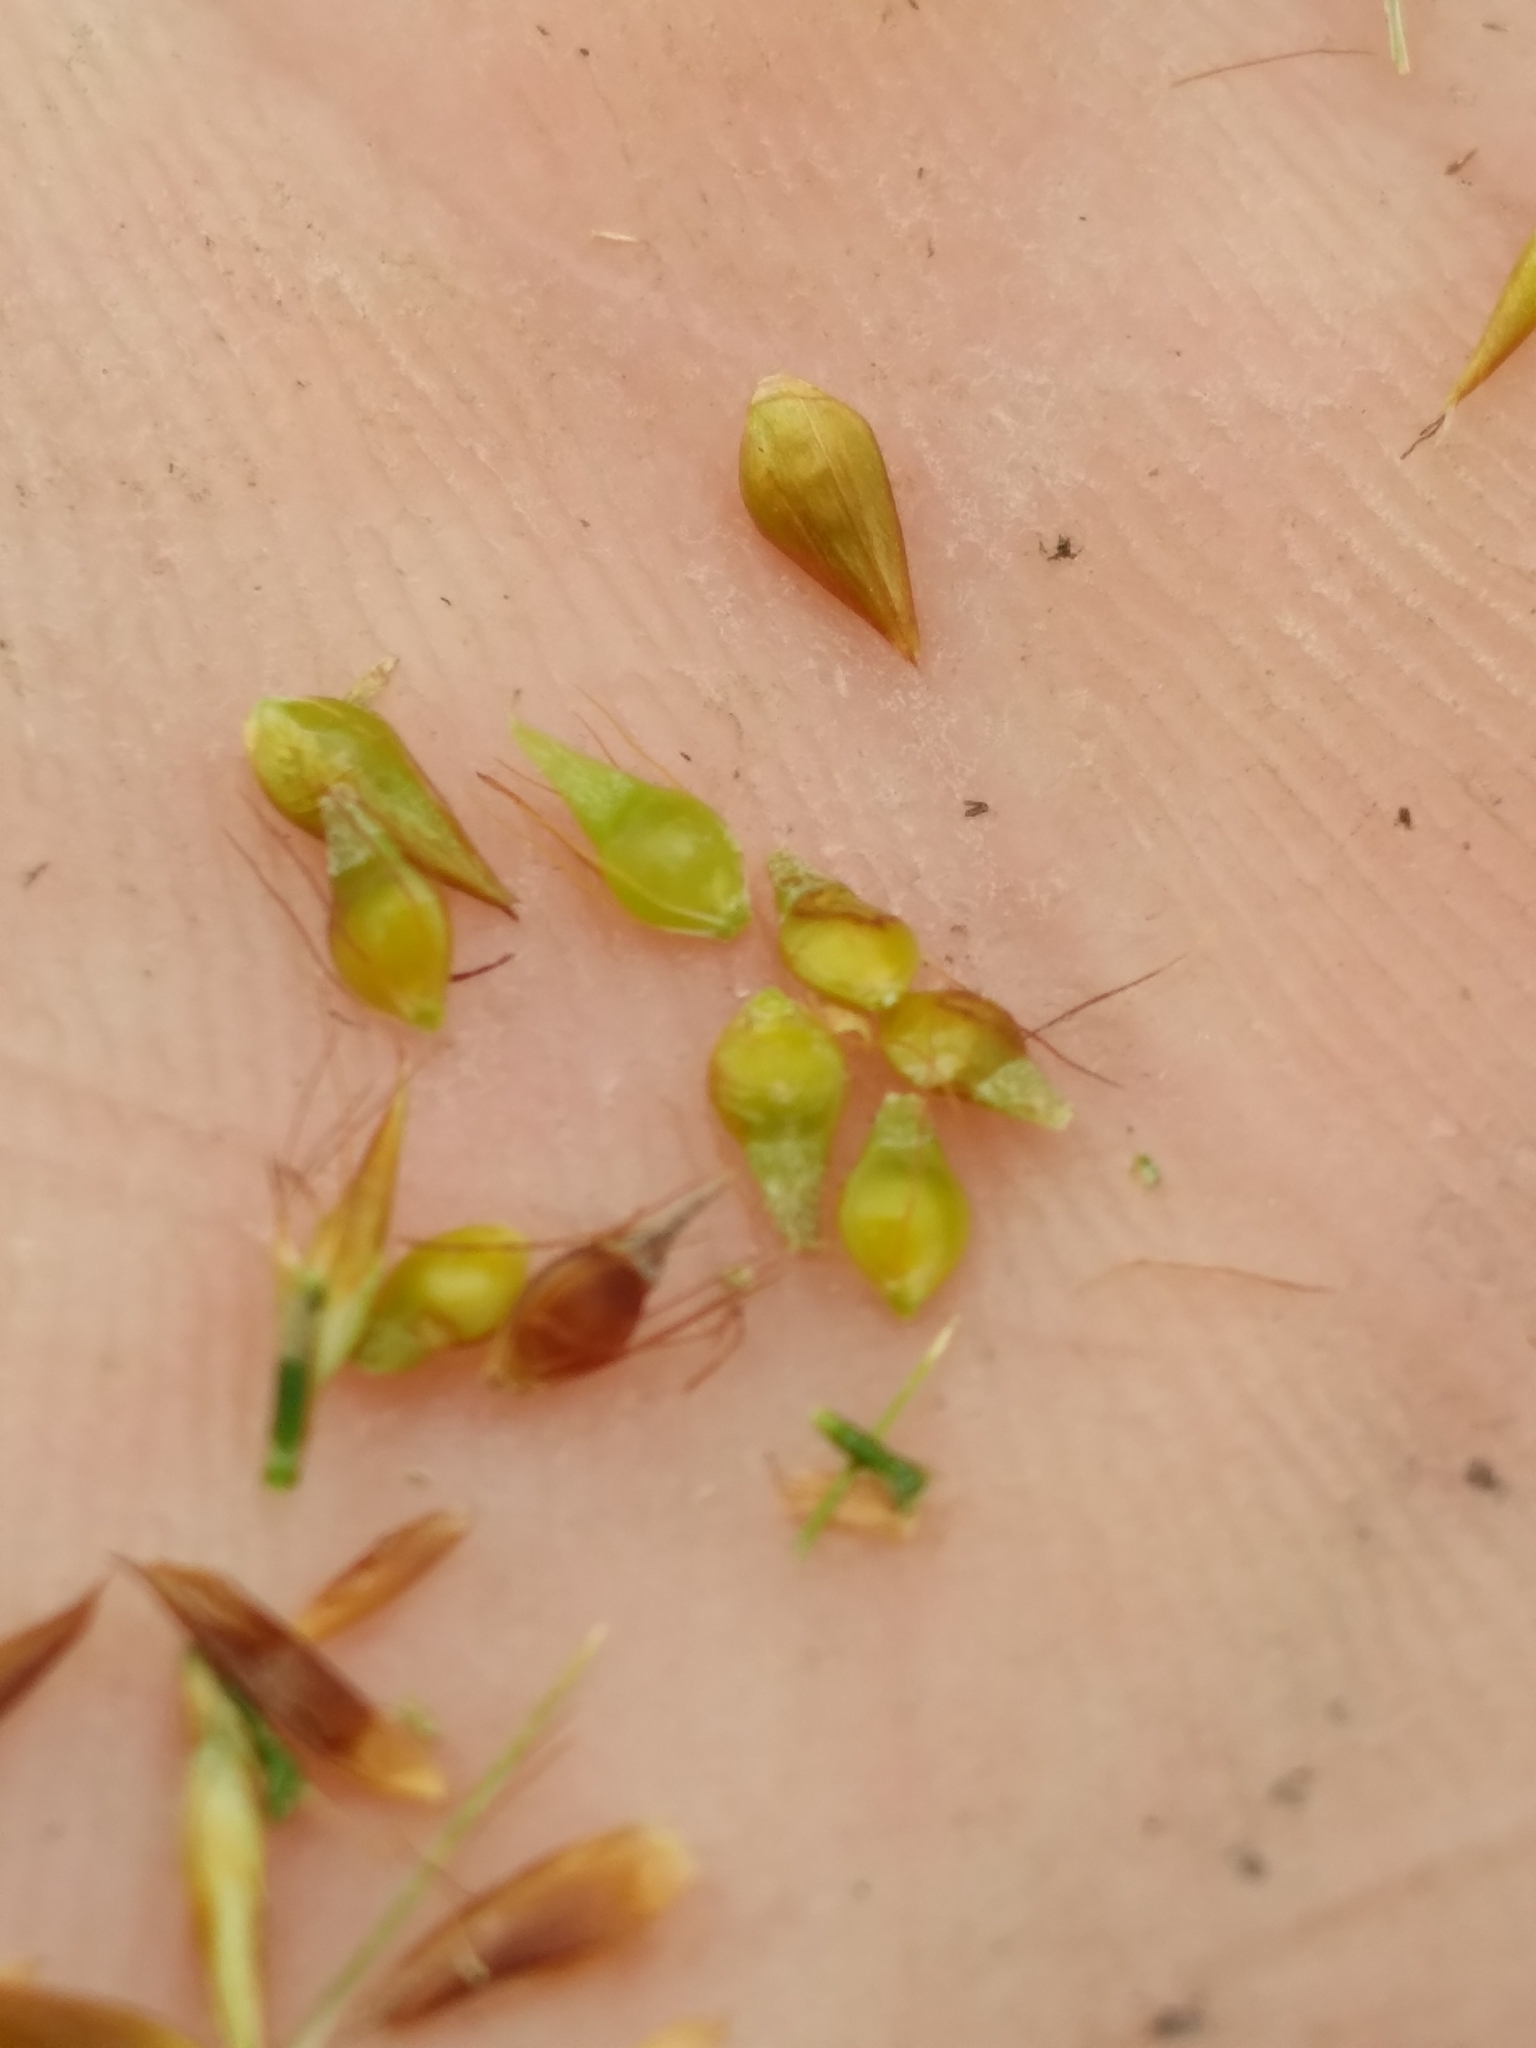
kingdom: Plantae
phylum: Tracheophyta
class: Liliopsida
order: Poales
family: Cyperaceae
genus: Rhynchospora
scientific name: Rhynchospora gracilenta
